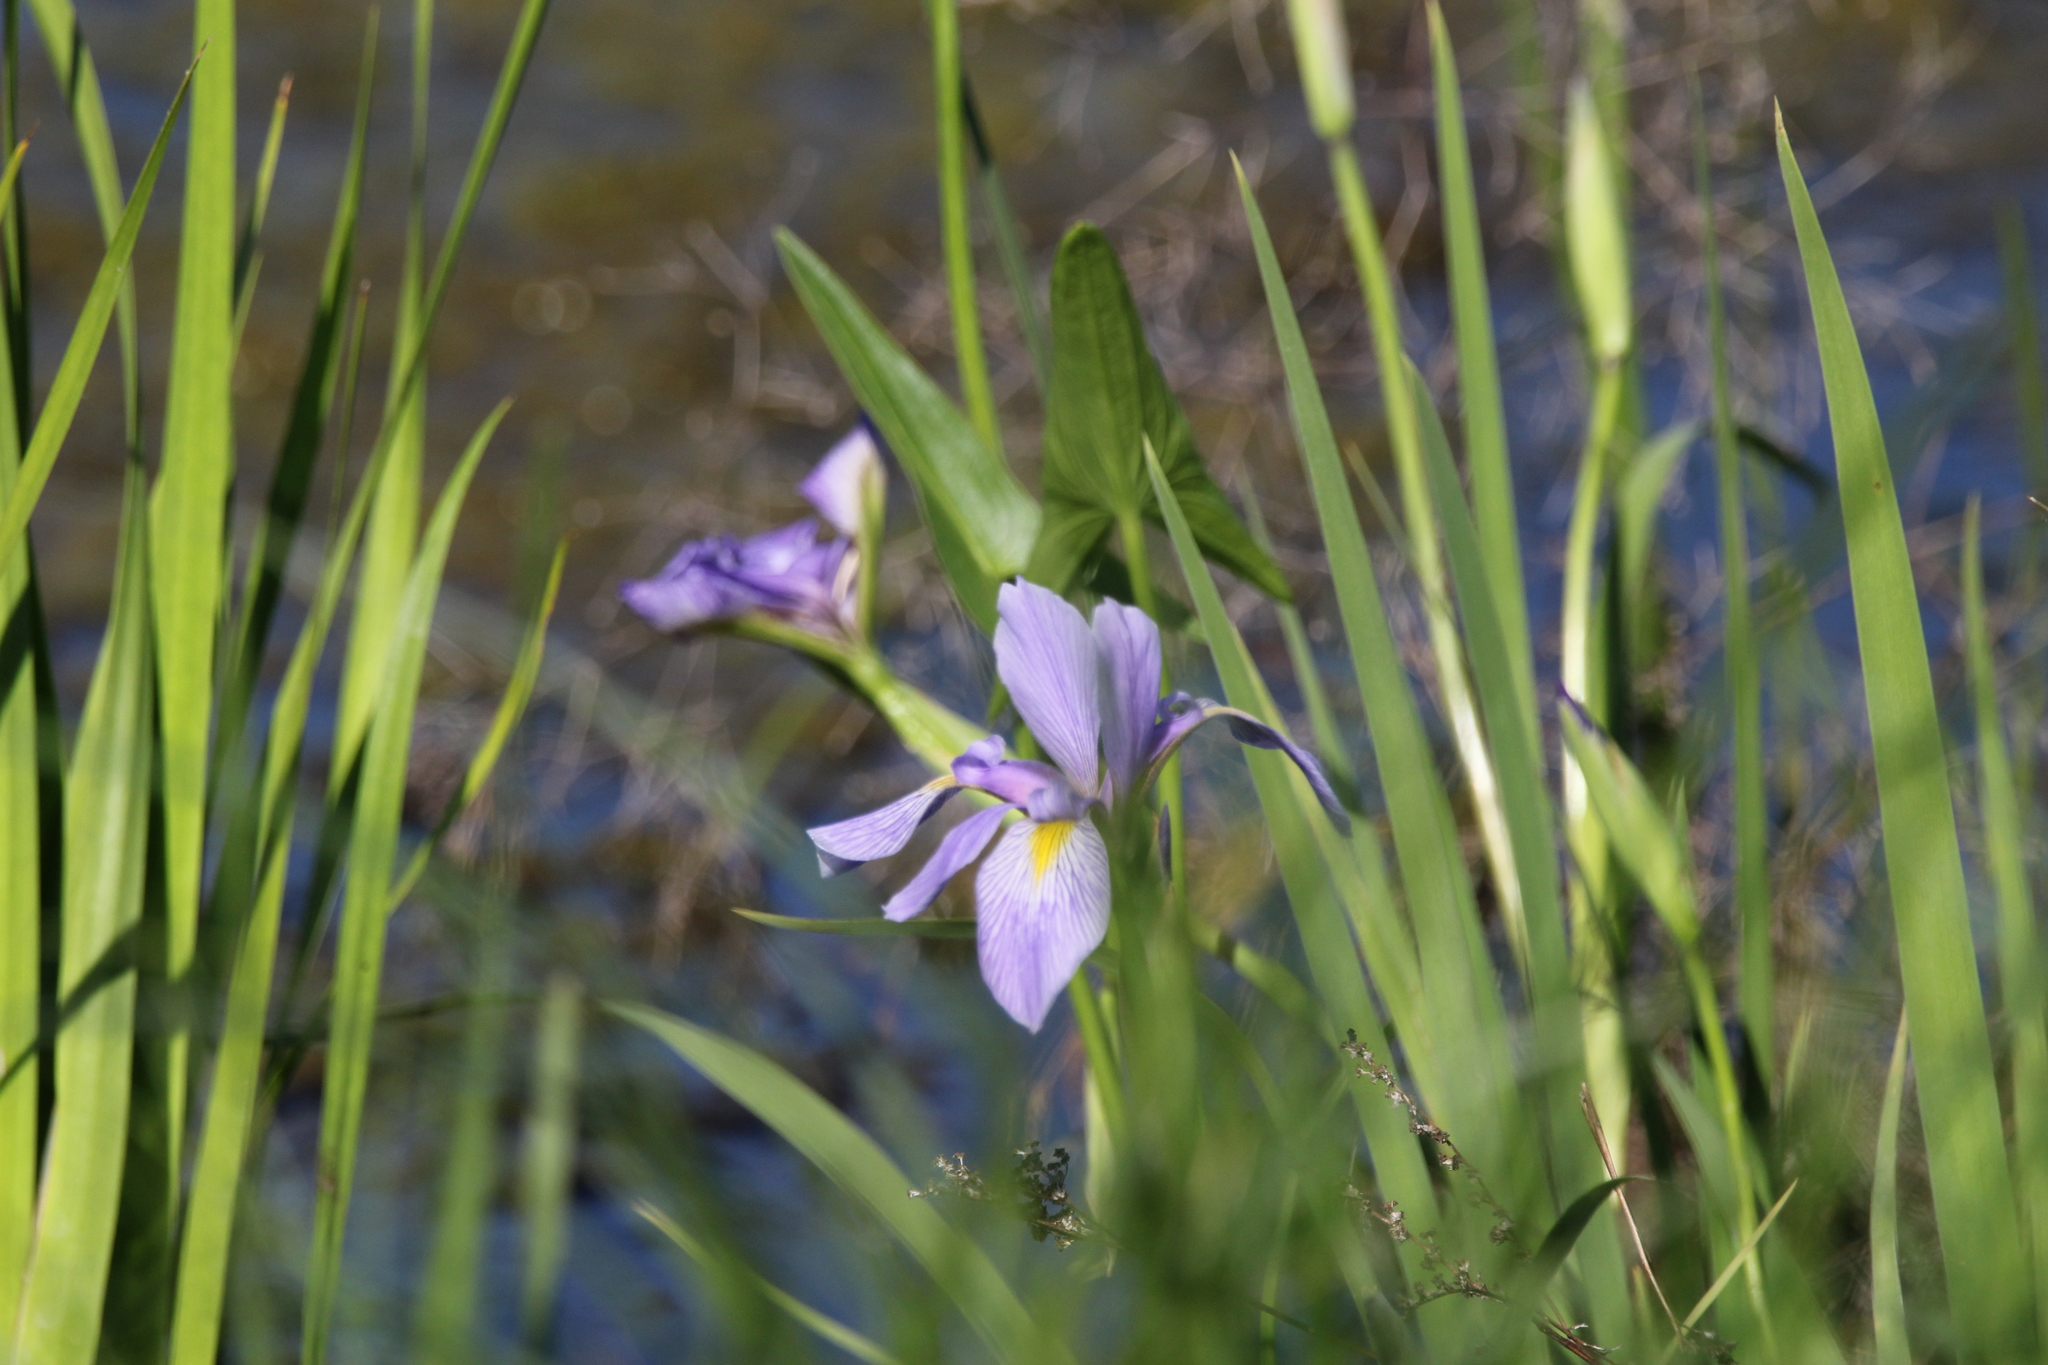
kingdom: Plantae
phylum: Tracheophyta
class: Liliopsida
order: Asparagales
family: Iridaceae
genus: Iris
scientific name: Iris virginica
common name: Southern blue flag
